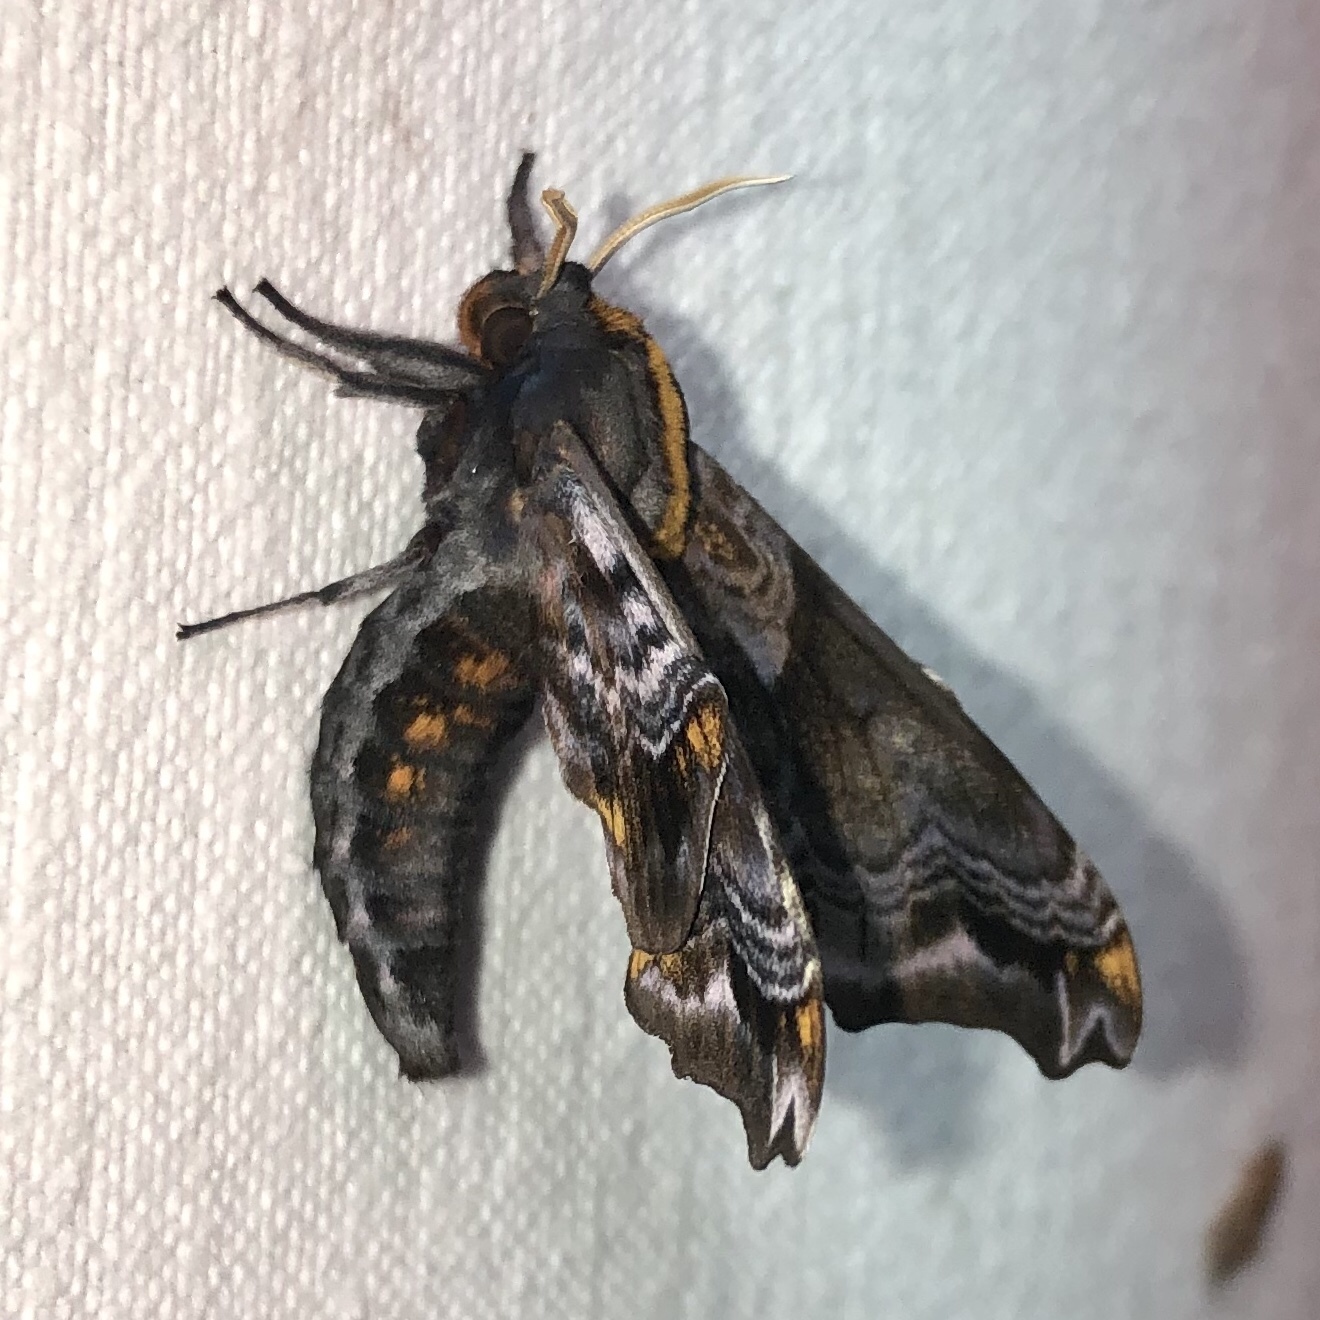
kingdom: Animalia
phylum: Arthropoda
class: Insecta
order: Lepidoptera
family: Sphingidae
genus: Paonias
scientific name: Paonias myops
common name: Small-eyed sphinx
